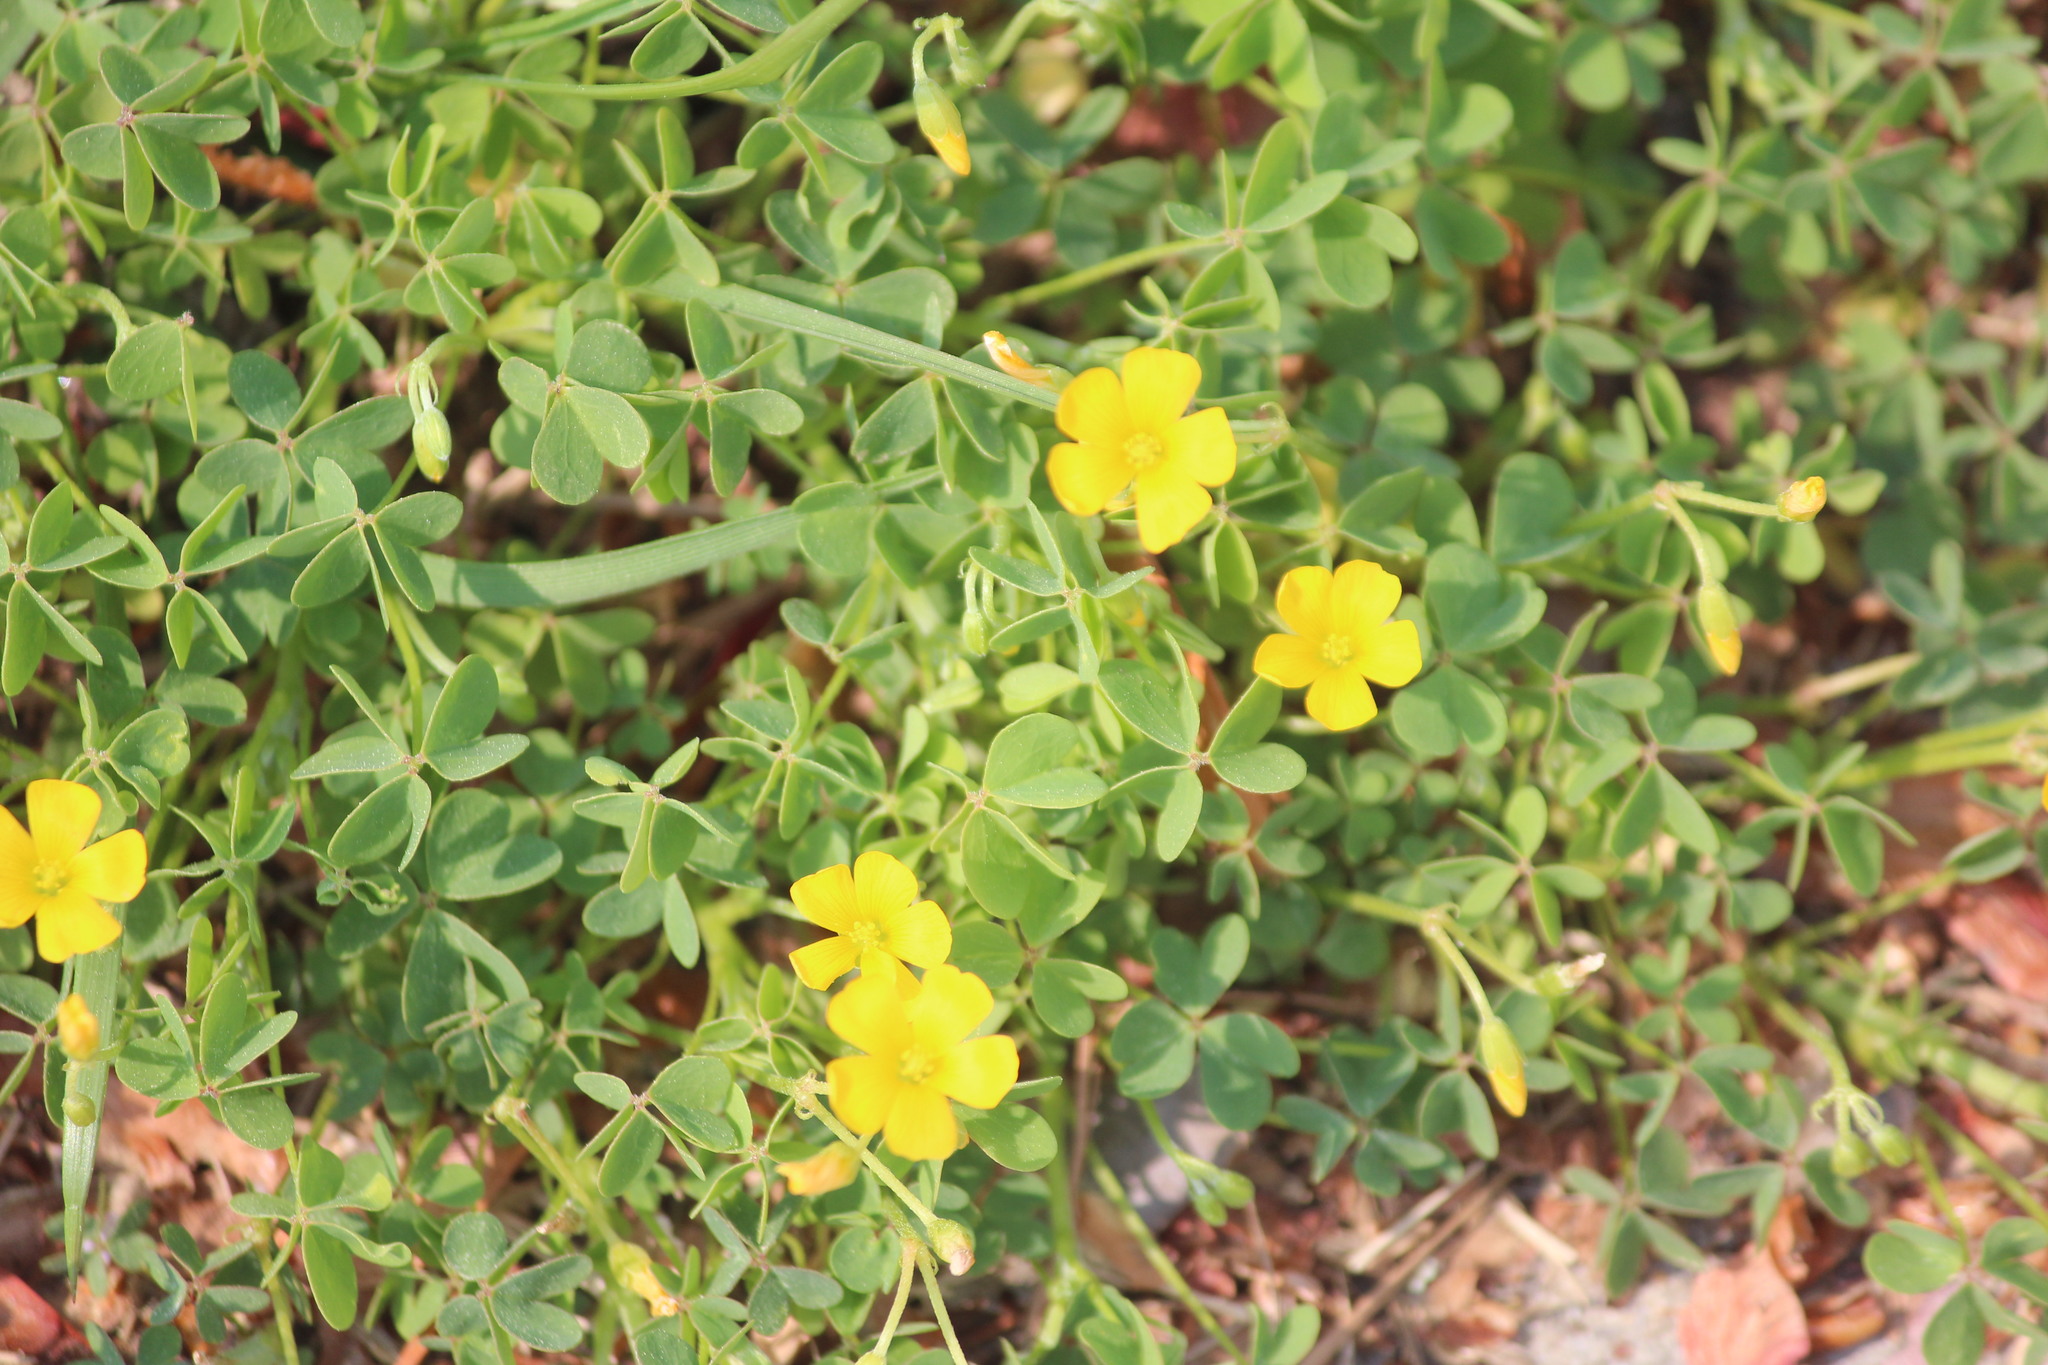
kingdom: Plantae
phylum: Tracheophyta
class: Magnoliopsida
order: Oxalidales
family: Oxalidaceae
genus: Oxalis
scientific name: Oxalis dillenii
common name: Sussex yellow-sorrel
